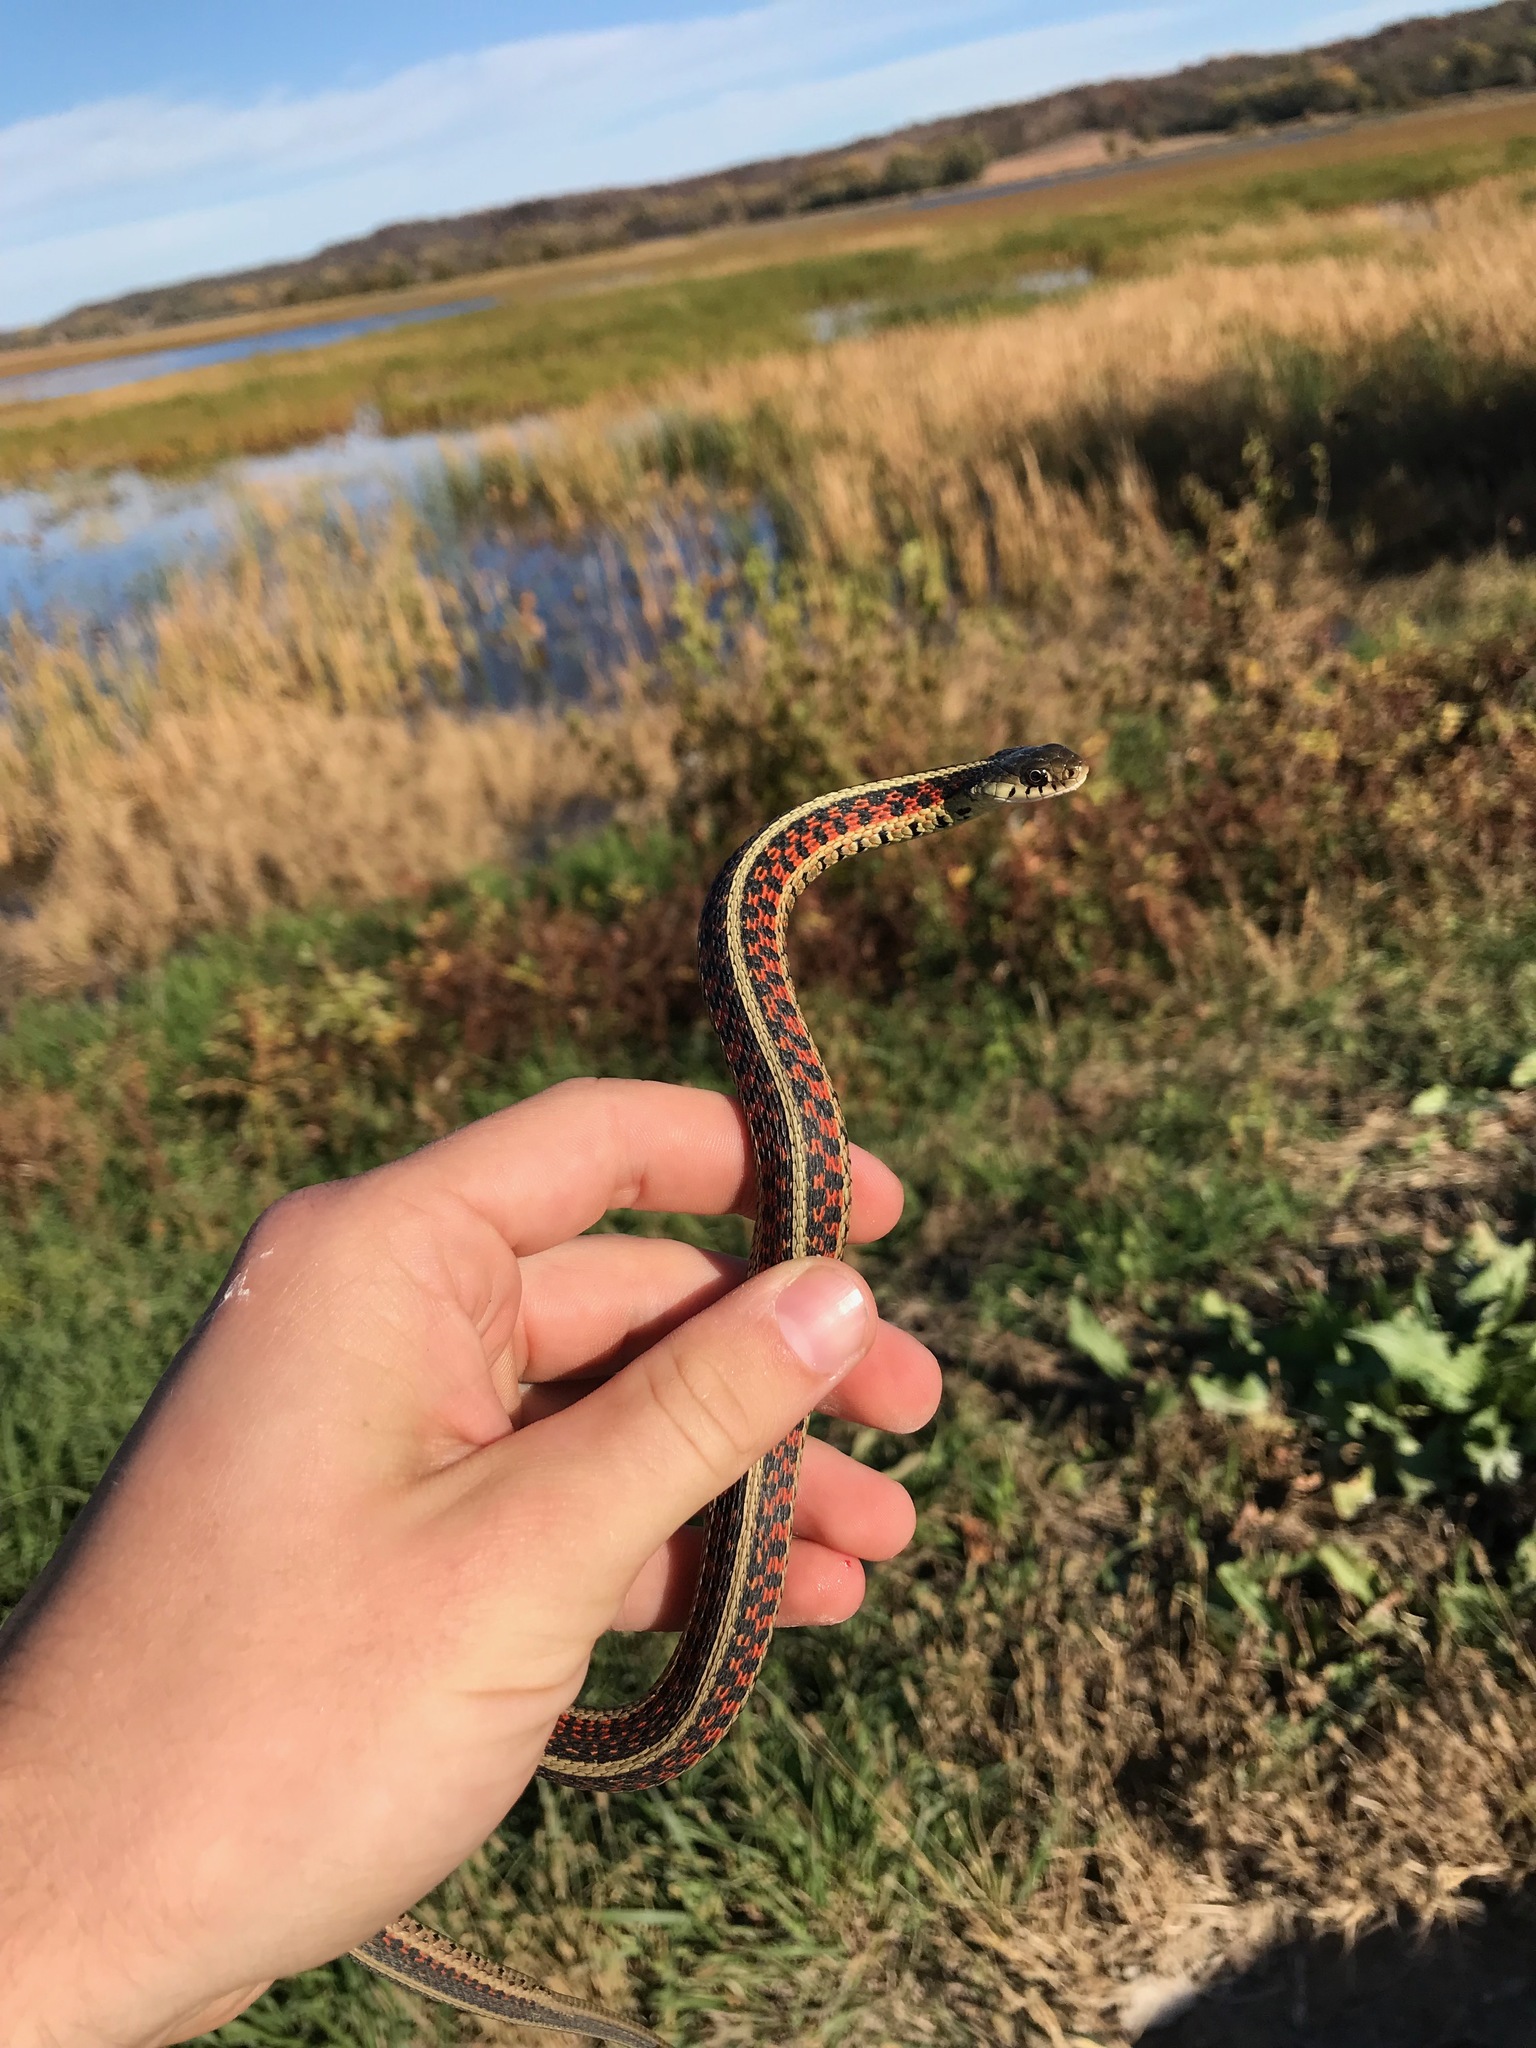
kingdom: Animalia
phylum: Chordata
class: Squamata
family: Colubridae
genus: Thamnophis
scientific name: Thamnophis sirtalis
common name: Common garter snake
